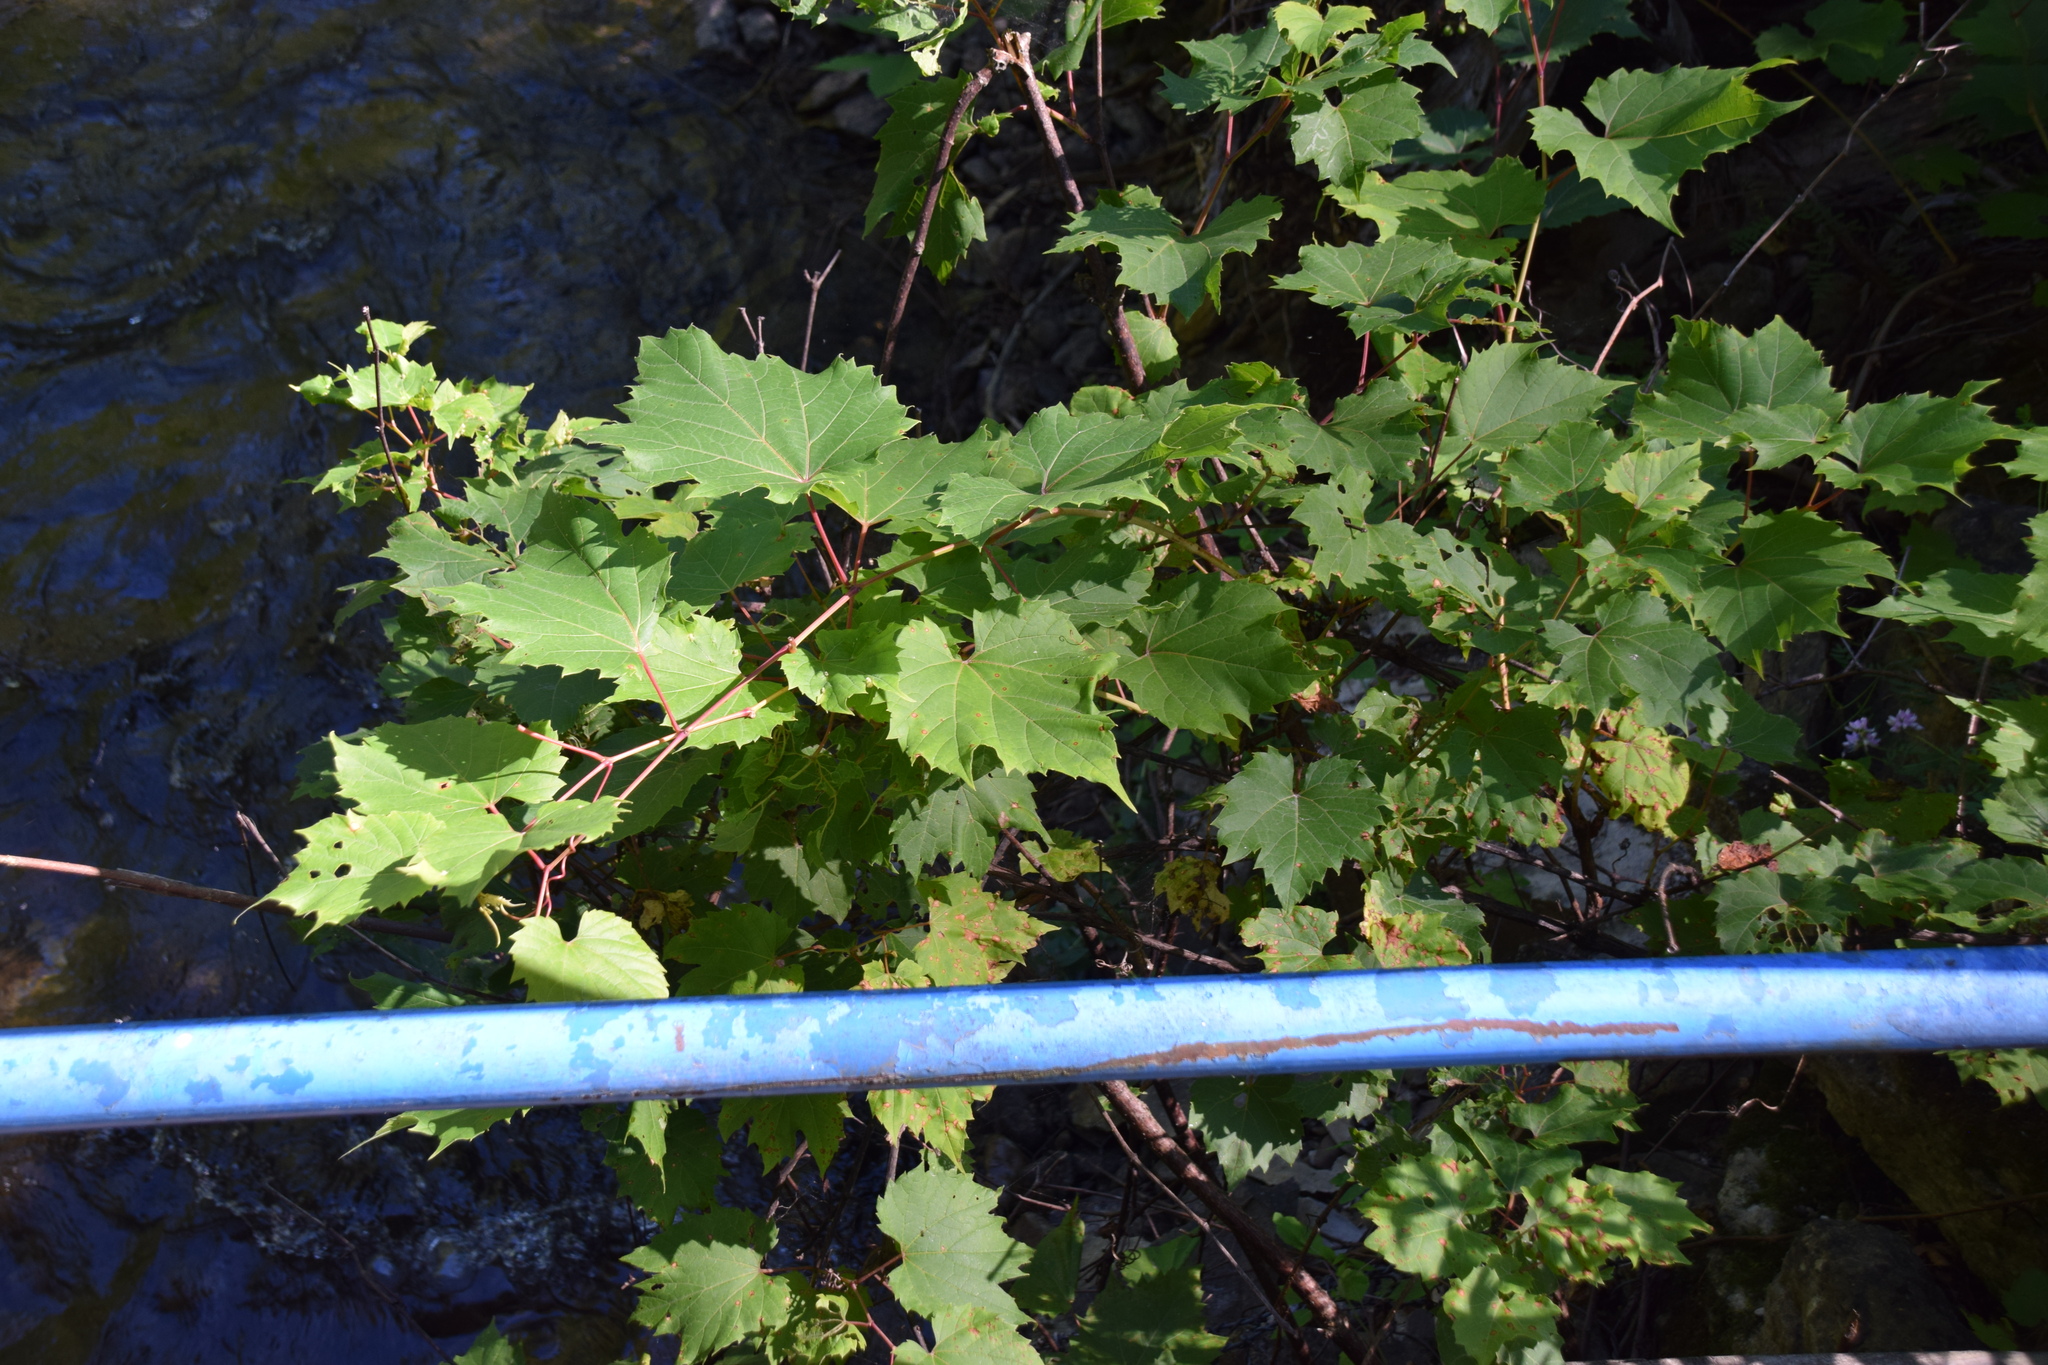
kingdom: Plantae
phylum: Tracheophyta
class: Magnoliopsida
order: Vitales
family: Vitaceae
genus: Vitis
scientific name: Vitis riparia
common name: Frost grape
